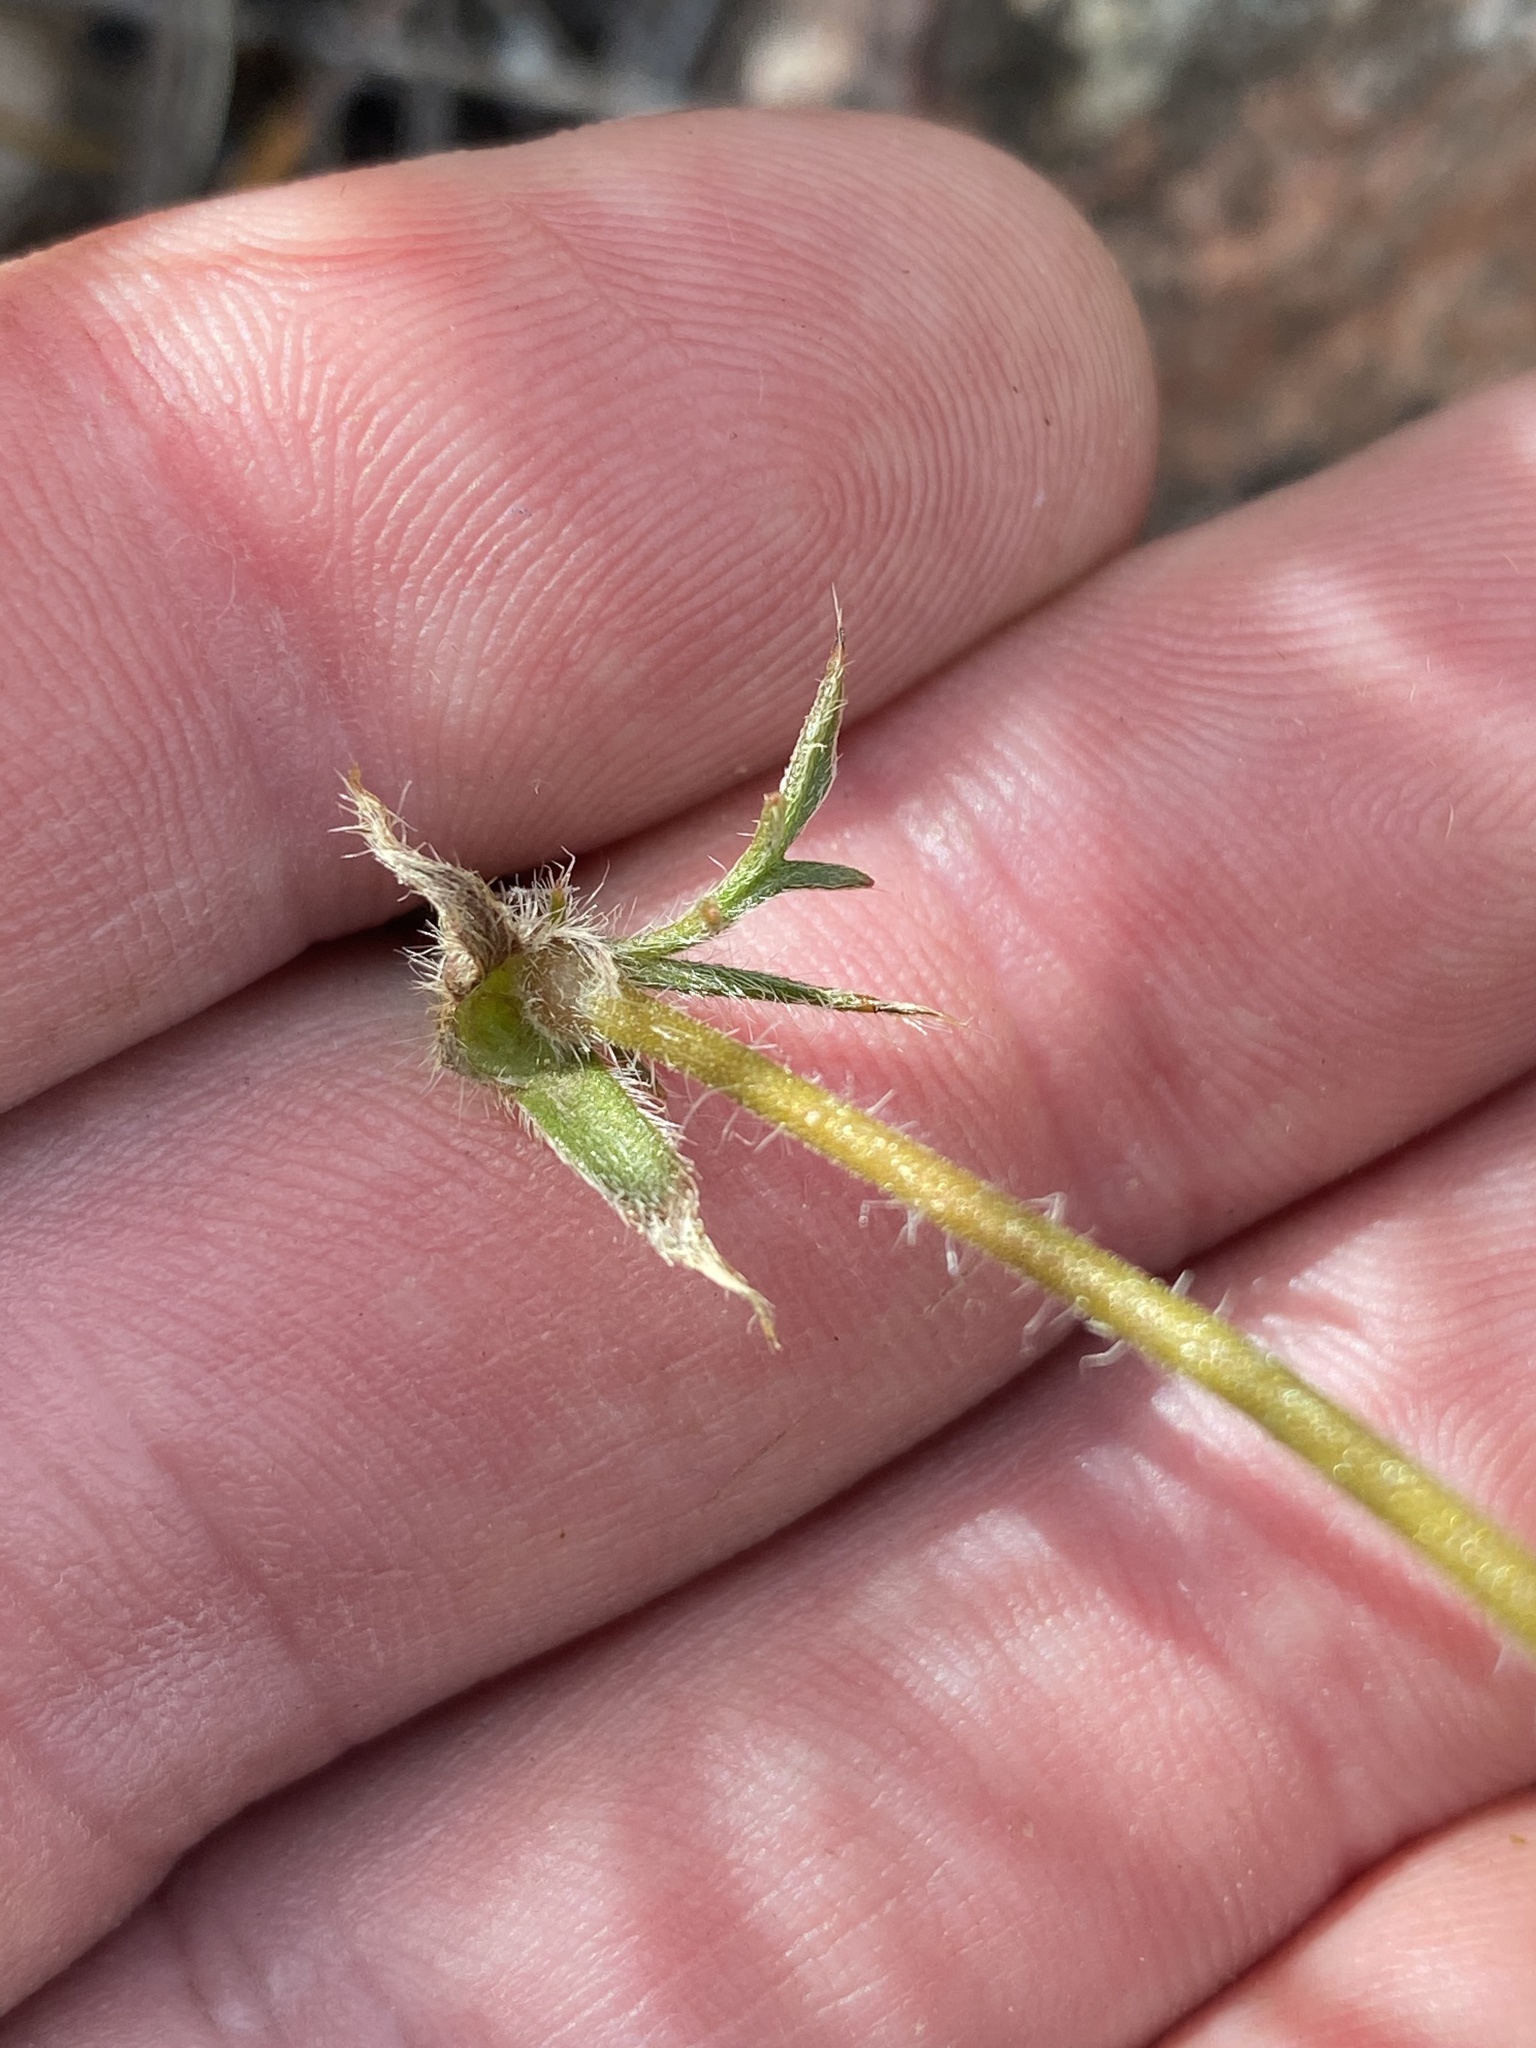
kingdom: Plantae
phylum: Tracheophyta
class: Magnoliopsida
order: Geraniales
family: Geraniaceae
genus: Pelargonium
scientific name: Pelargonium carneum
